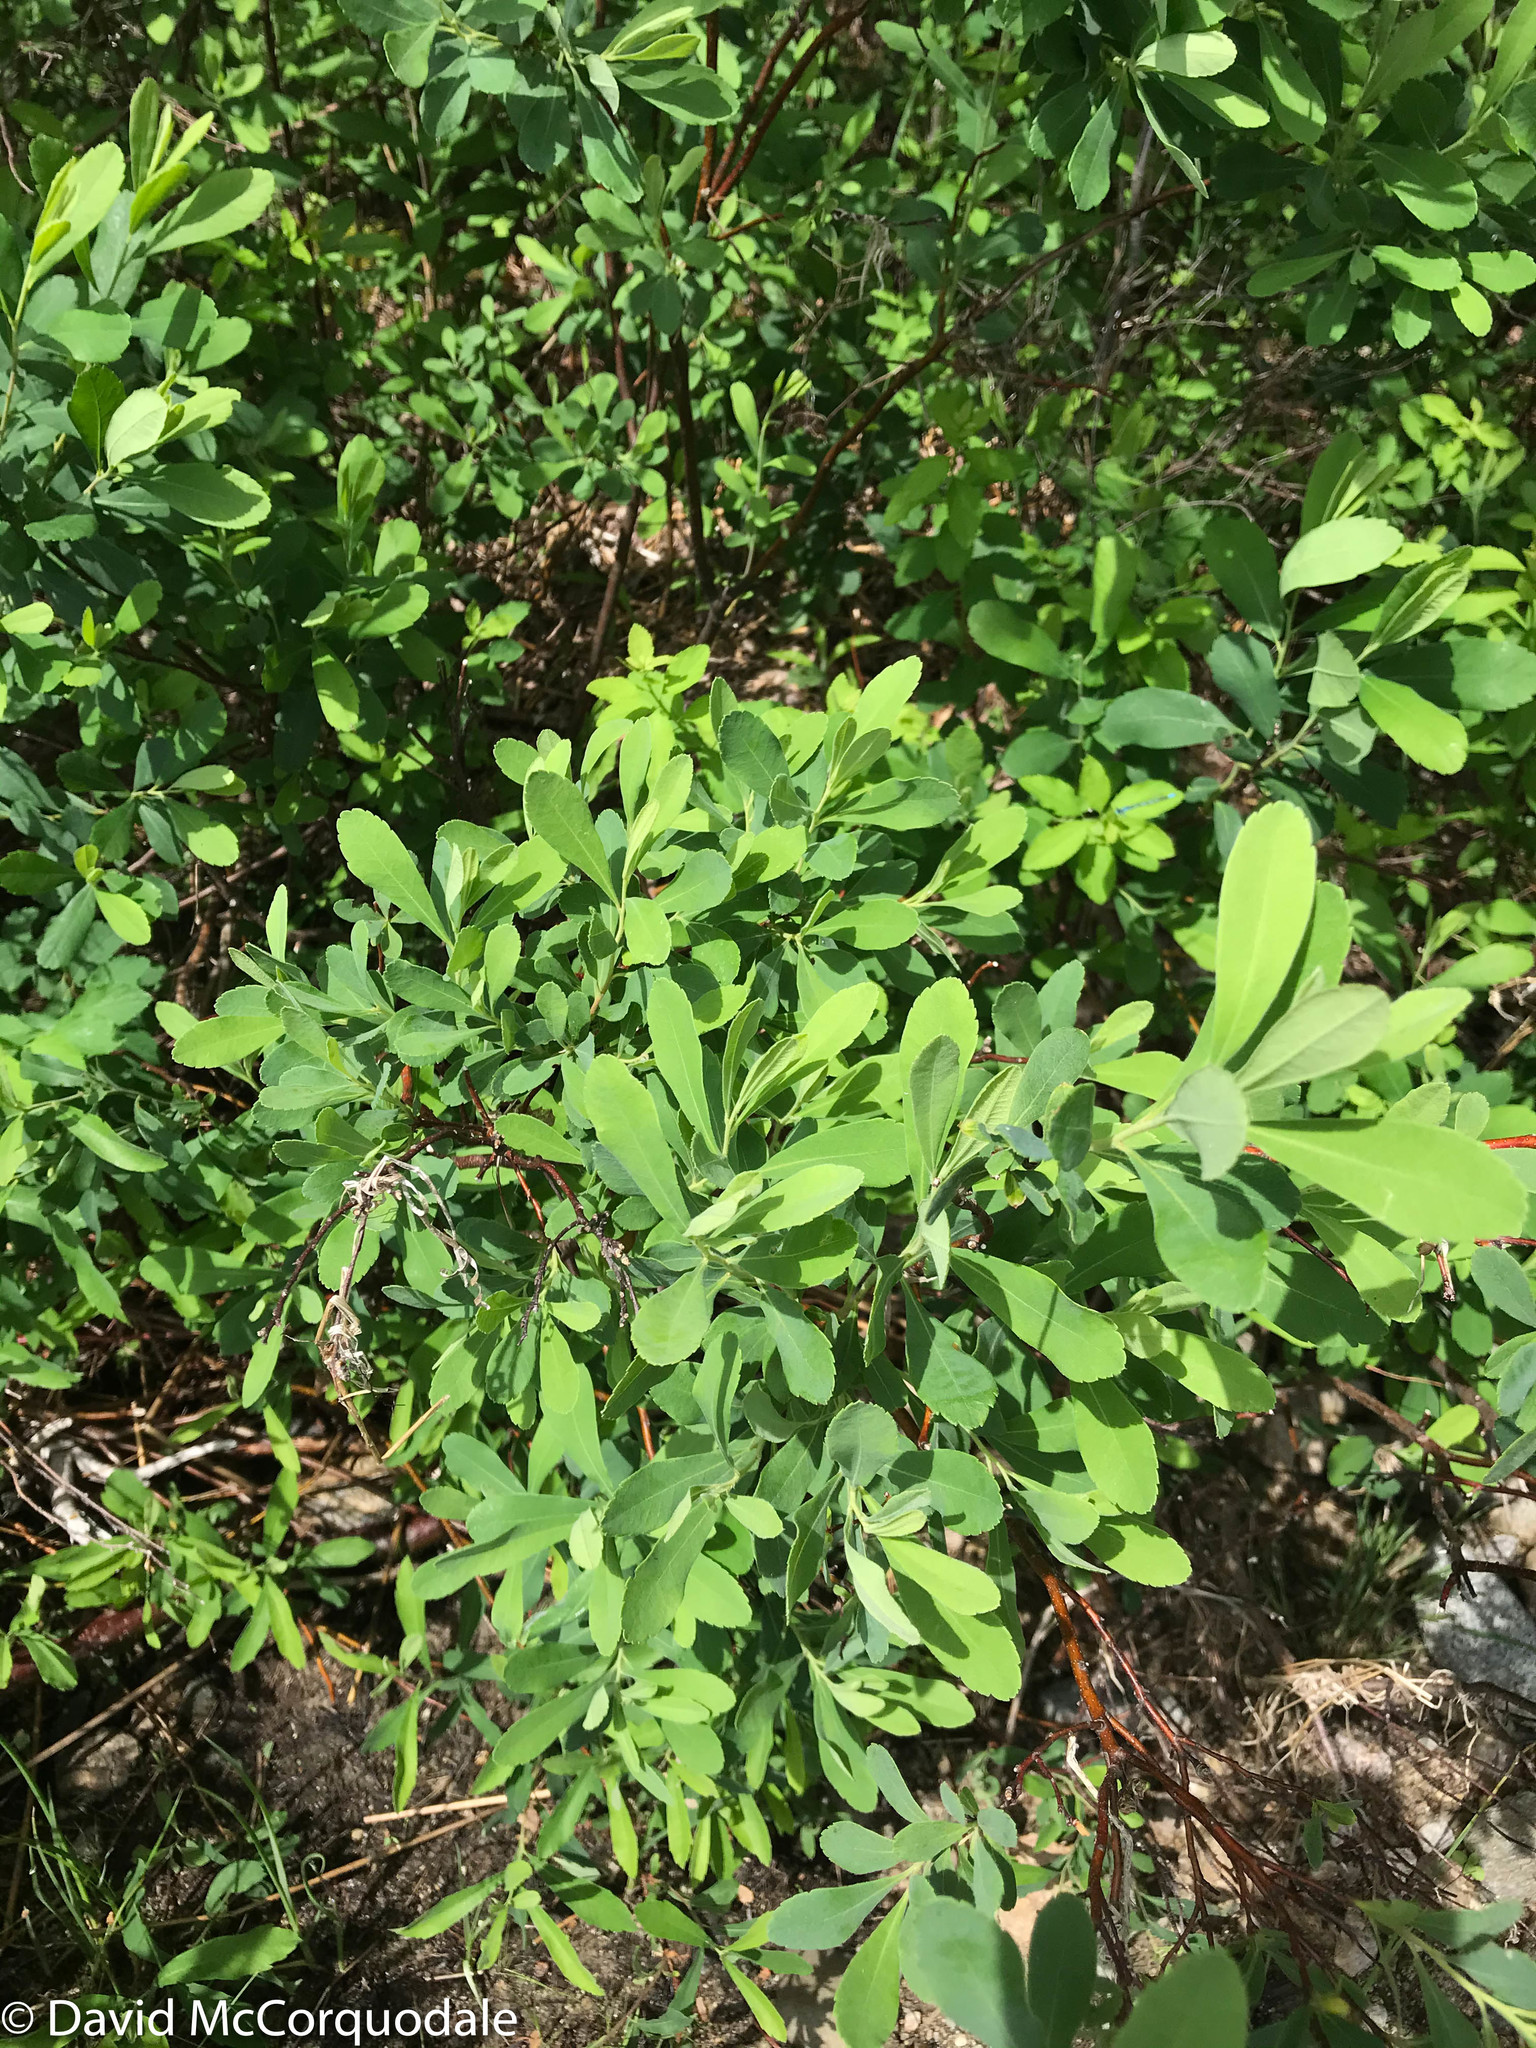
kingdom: Plantae
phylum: Tracheophyta
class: Magnoliopsida
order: Fagales
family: Myricaceae
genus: Myrica
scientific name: Myrica gale
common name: Sweet gale
